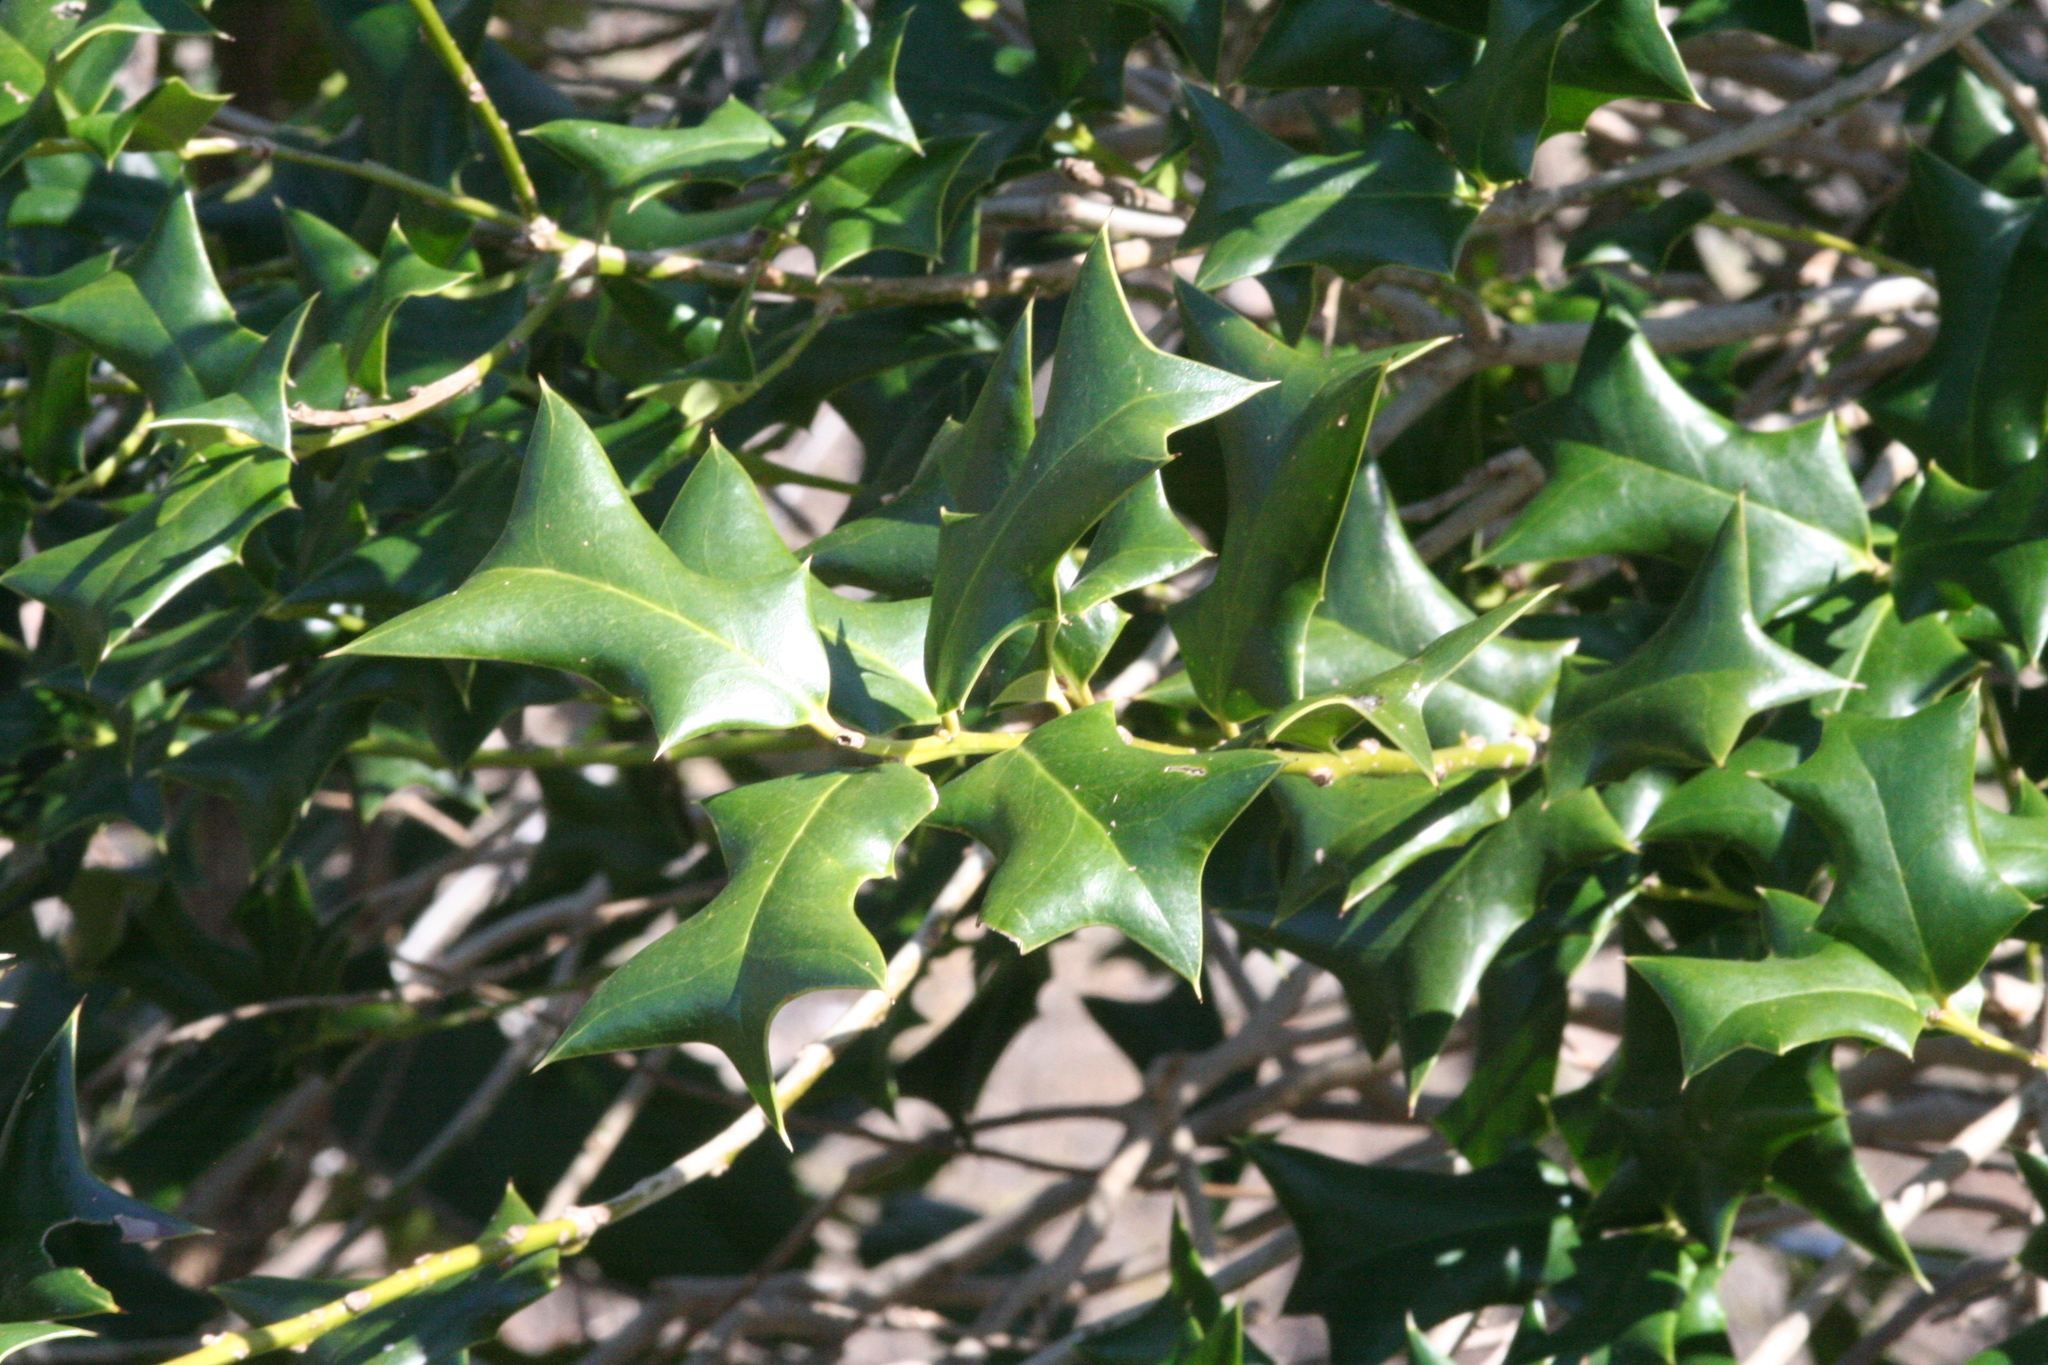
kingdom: Plantae
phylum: Tracheophyta
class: Magnoliopsida
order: Aquifoliales
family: Aquifoliaceae
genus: Ilex
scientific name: Ilex cornuta
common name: Chinese holly
